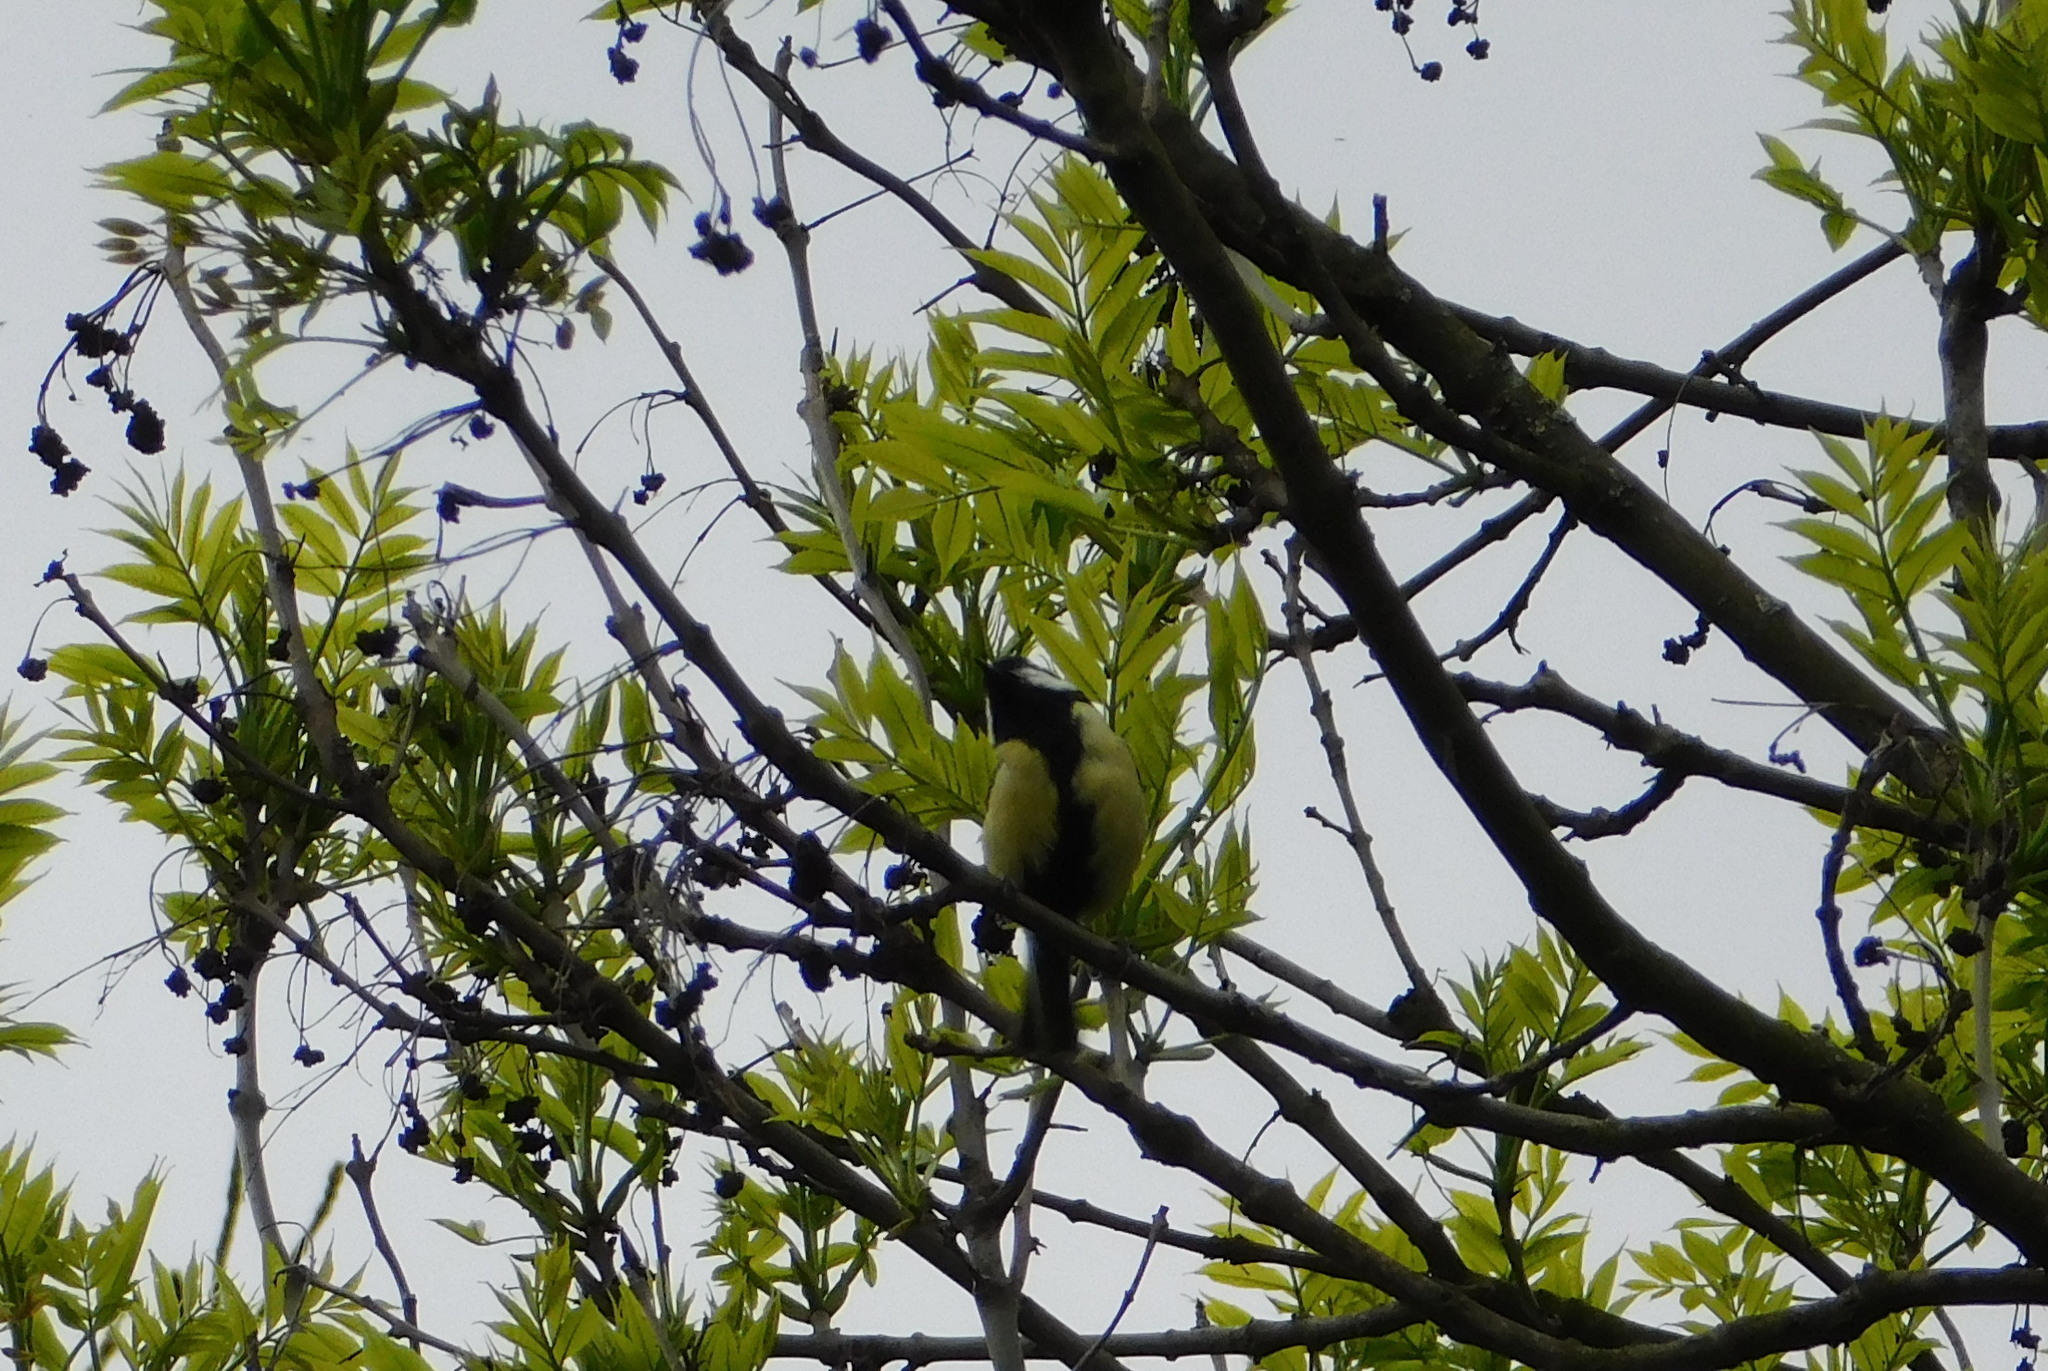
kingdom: Animalia
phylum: Chordata
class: Aves
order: Passeriformes
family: Paridae
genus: Parus
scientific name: Parus major
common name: Great tit
